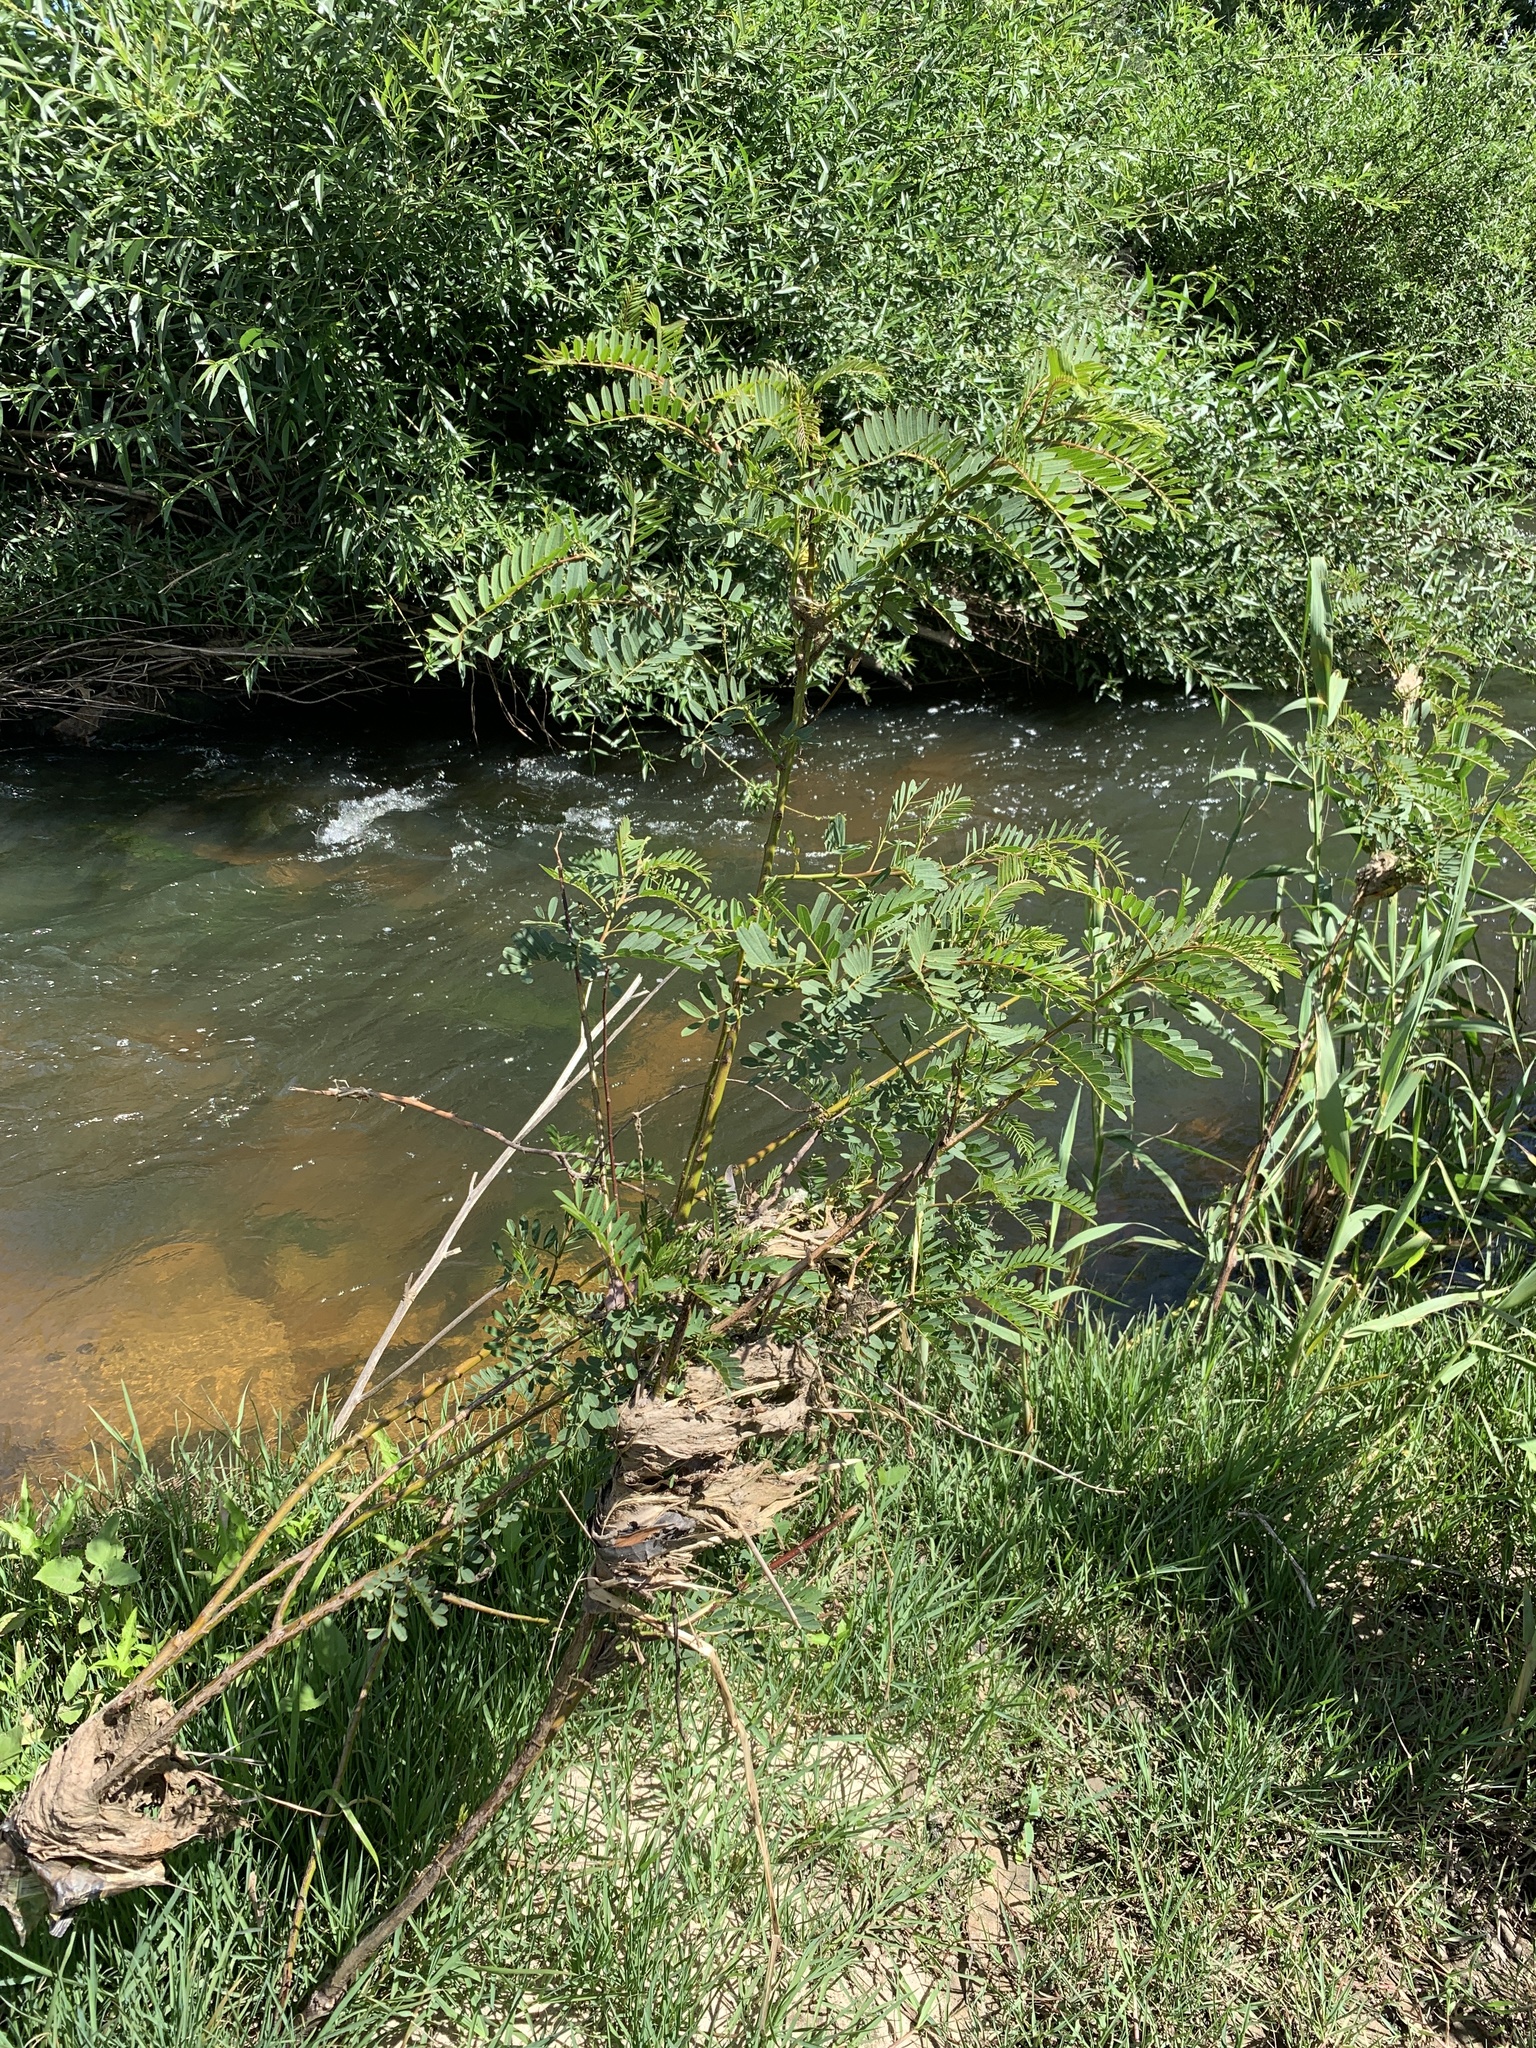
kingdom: Plantae
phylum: Tracheophyta
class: Magnoliopsida
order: Fabales
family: Fabaceae
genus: Sesbania
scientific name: Sesbania punicea
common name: Rattlebox
